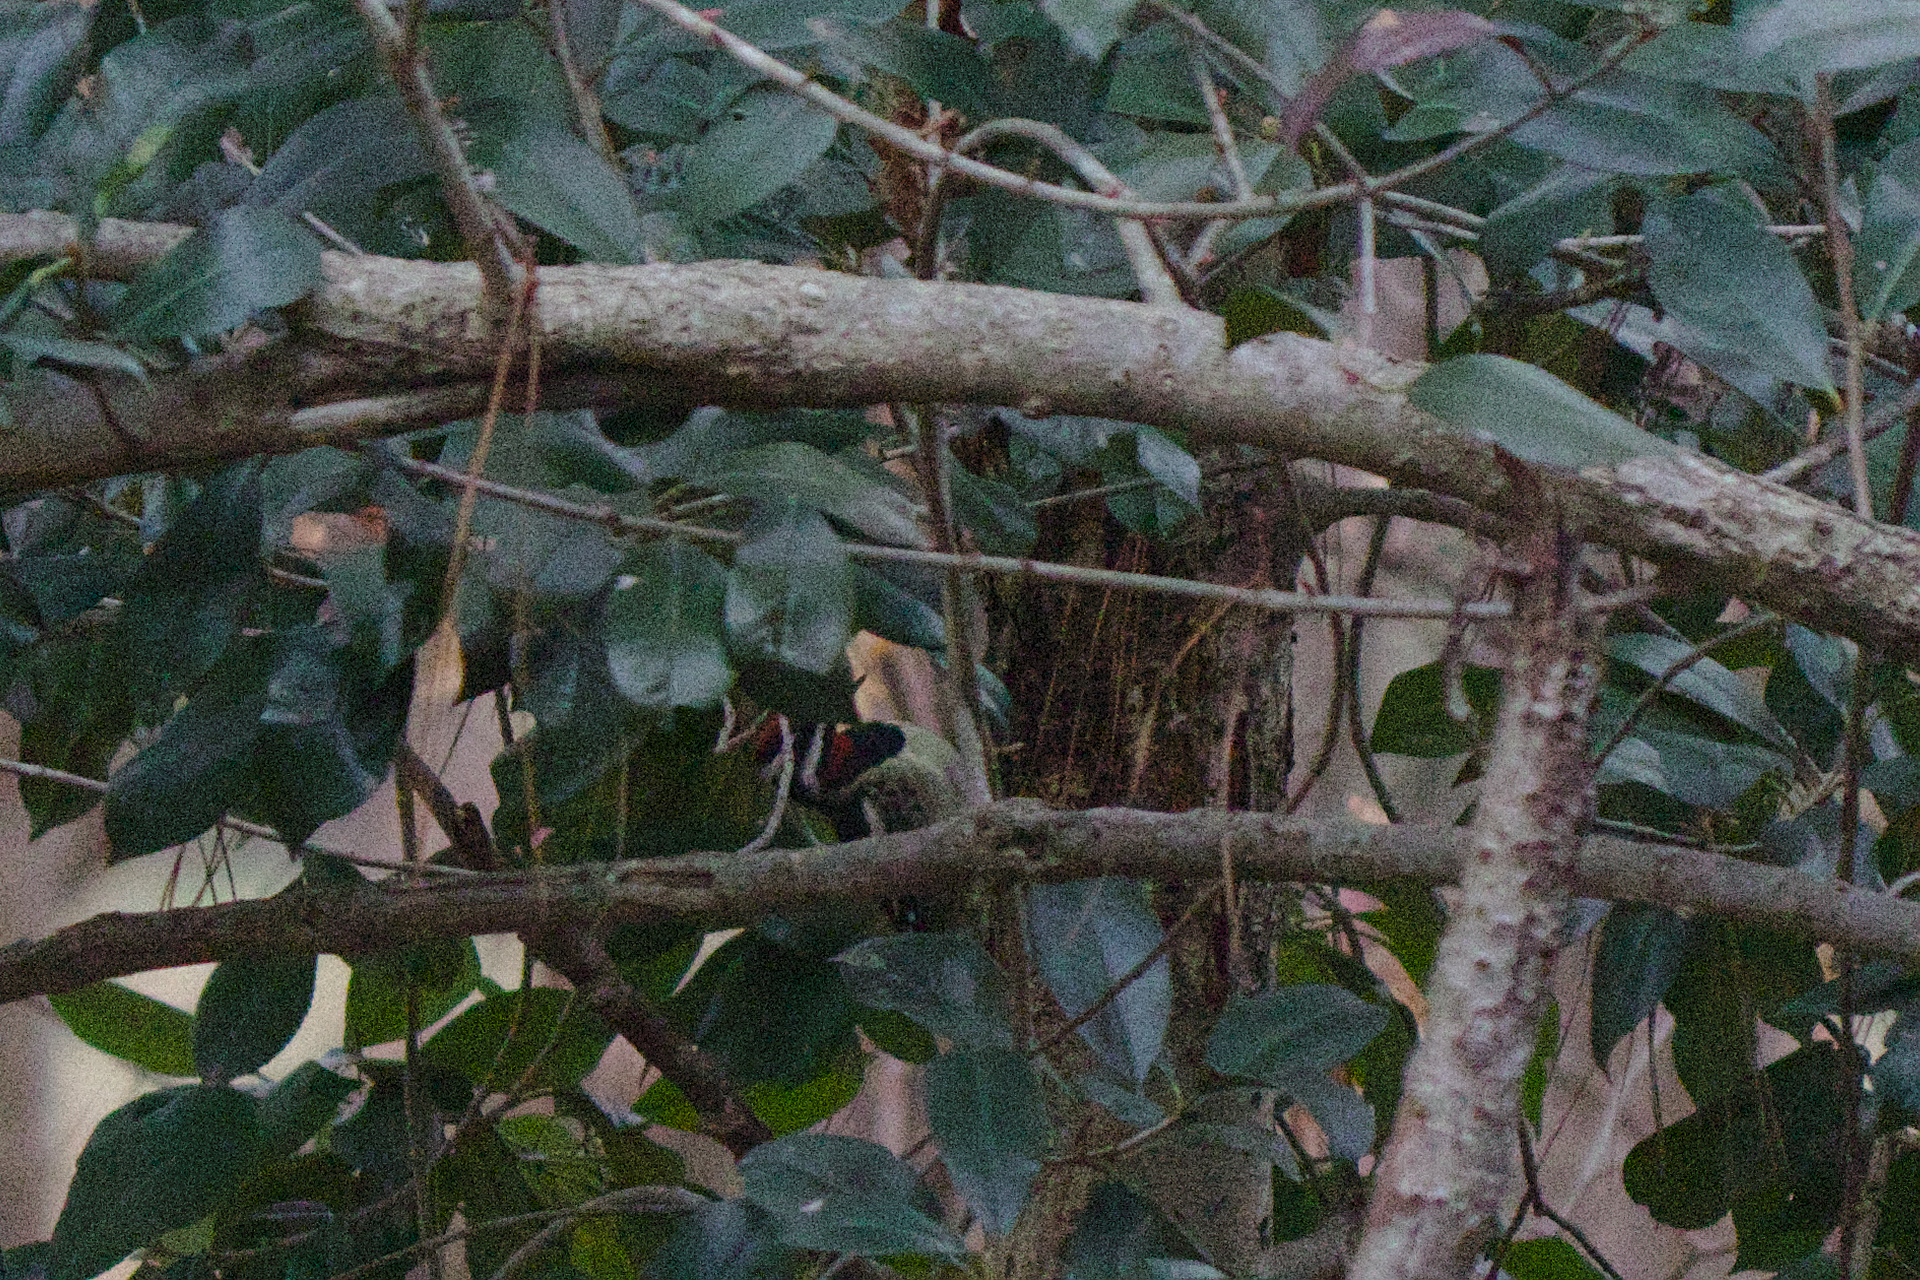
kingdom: Animalia
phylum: Chordata
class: Aves
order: Piciformes
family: Picidae
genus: Sphyrapicus
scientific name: Sphyrapicus varius
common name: Yellow-bellied sapsucker
